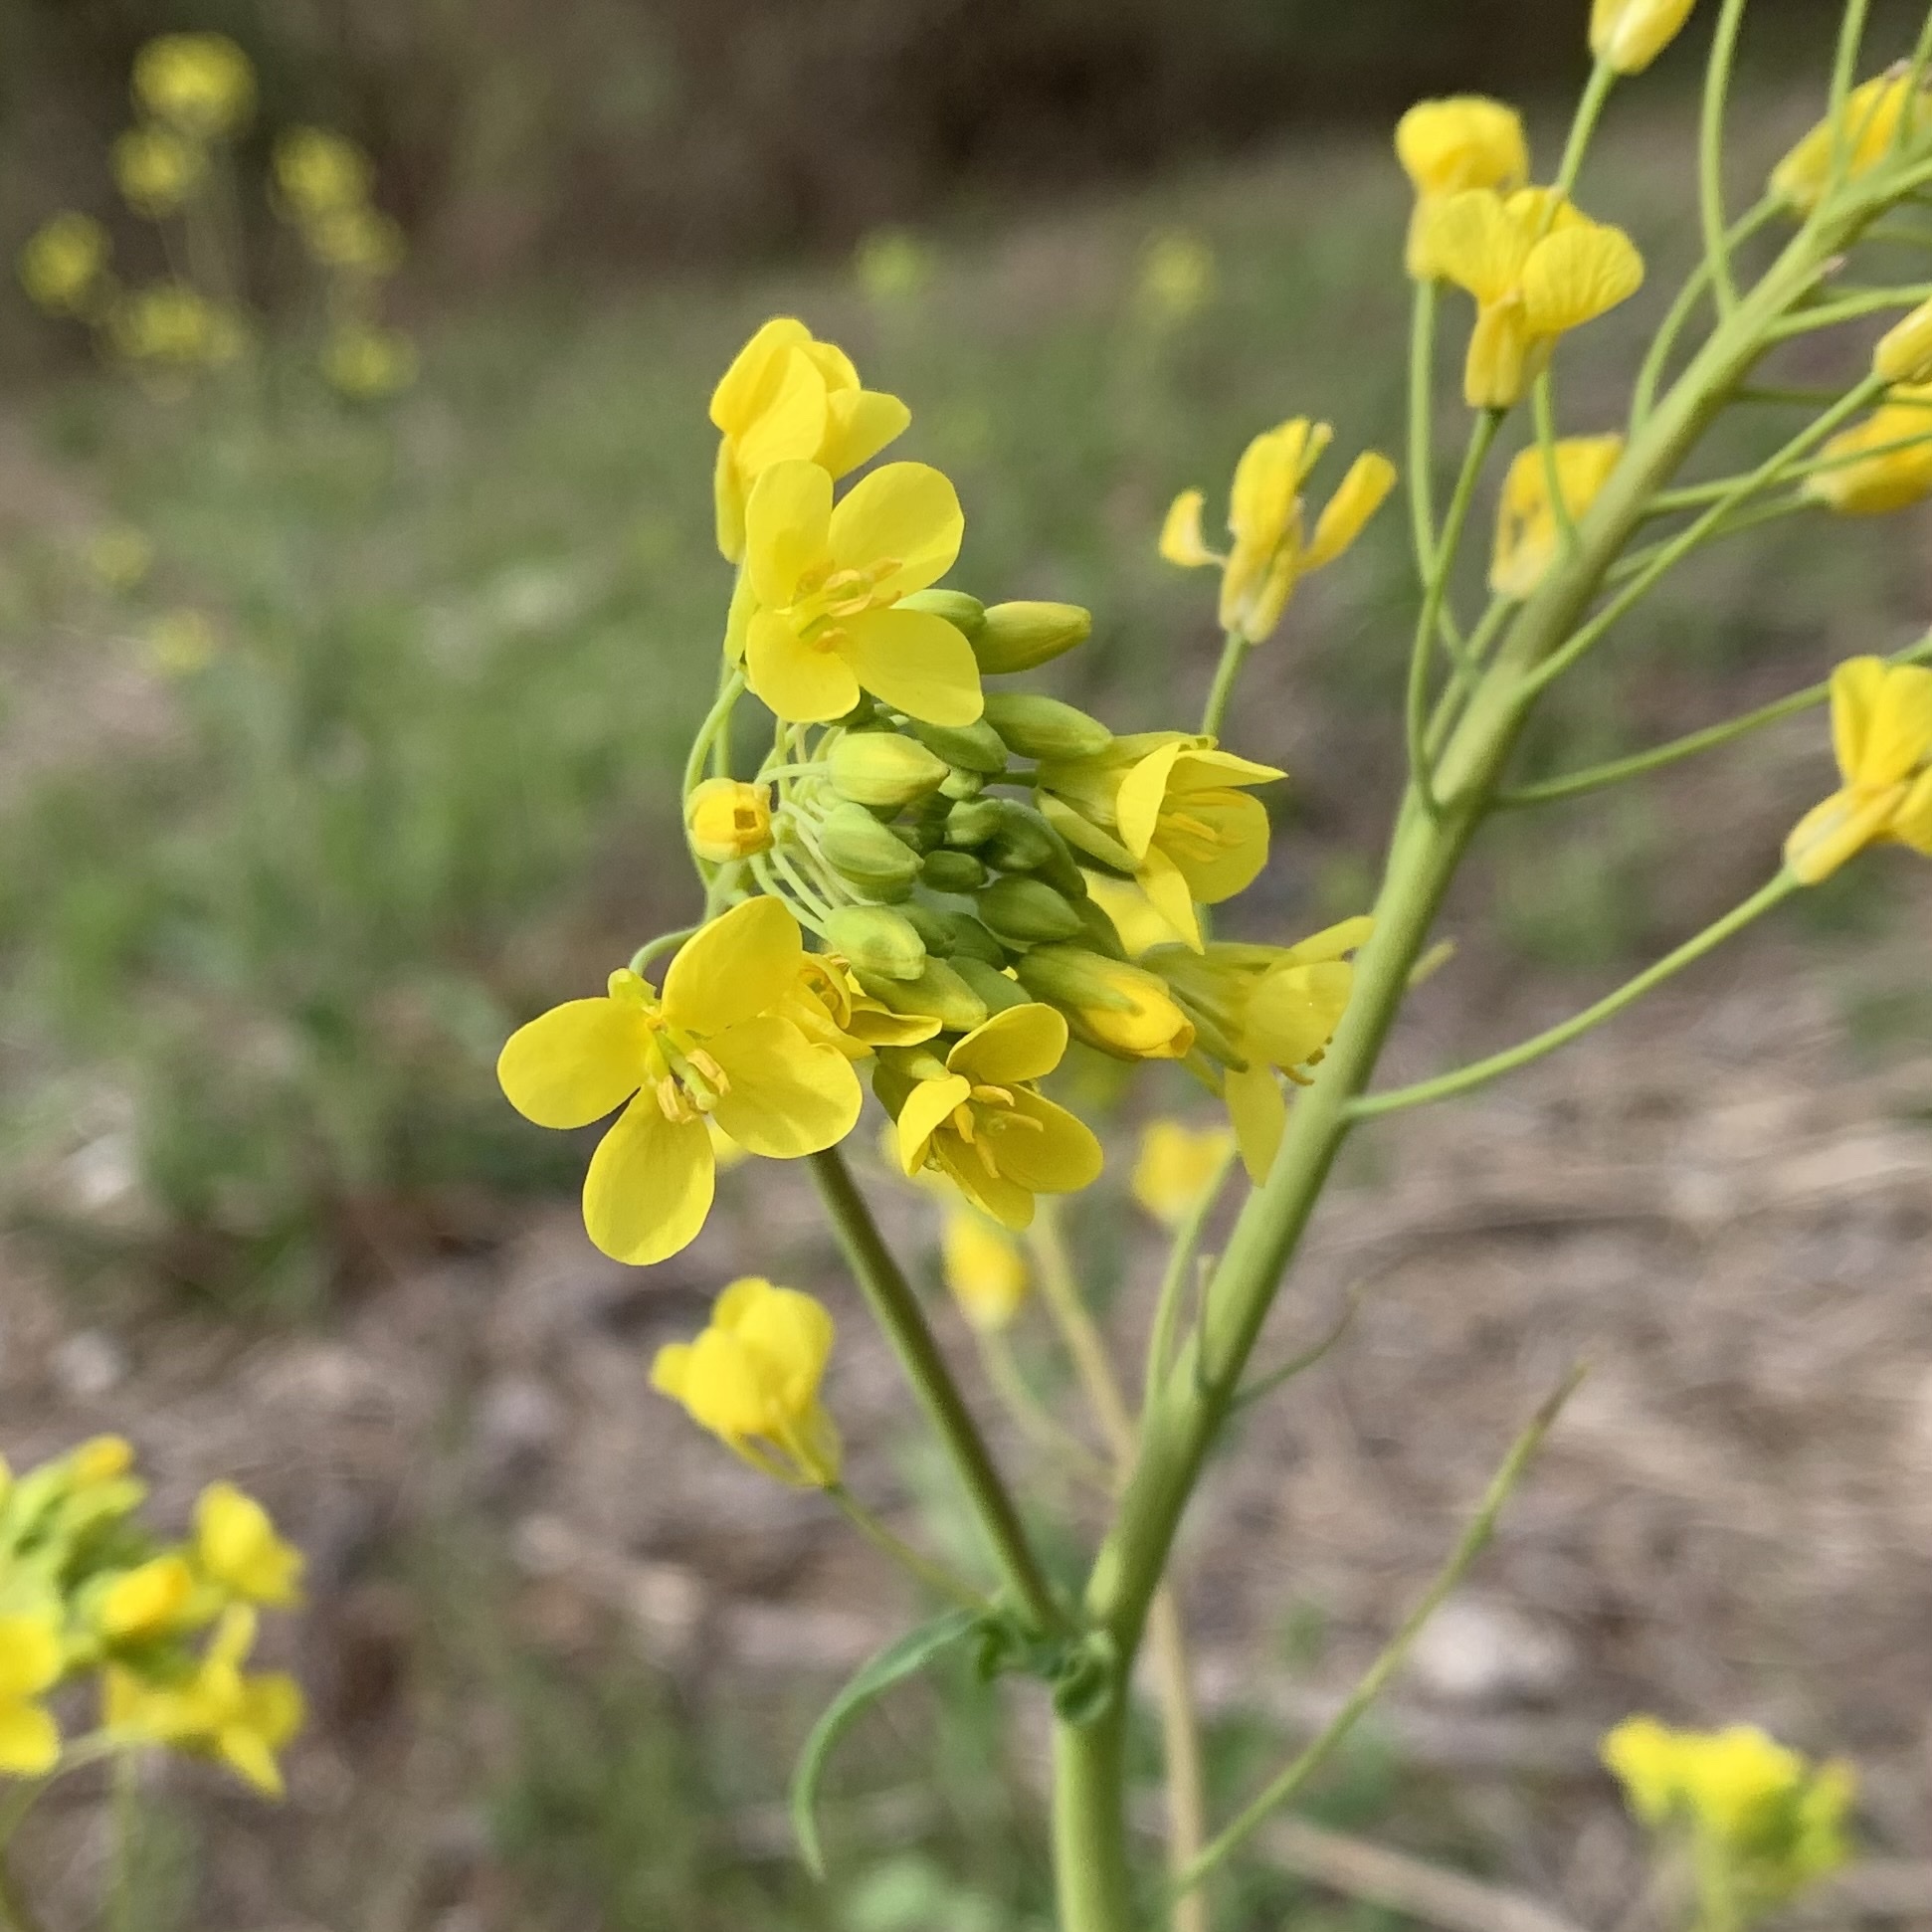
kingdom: Plantae
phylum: Tracheophyta
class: Magnoliopsida
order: Brassicales
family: Brassicaceae
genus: Brassica
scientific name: Brassica rapa
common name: Field mustard
